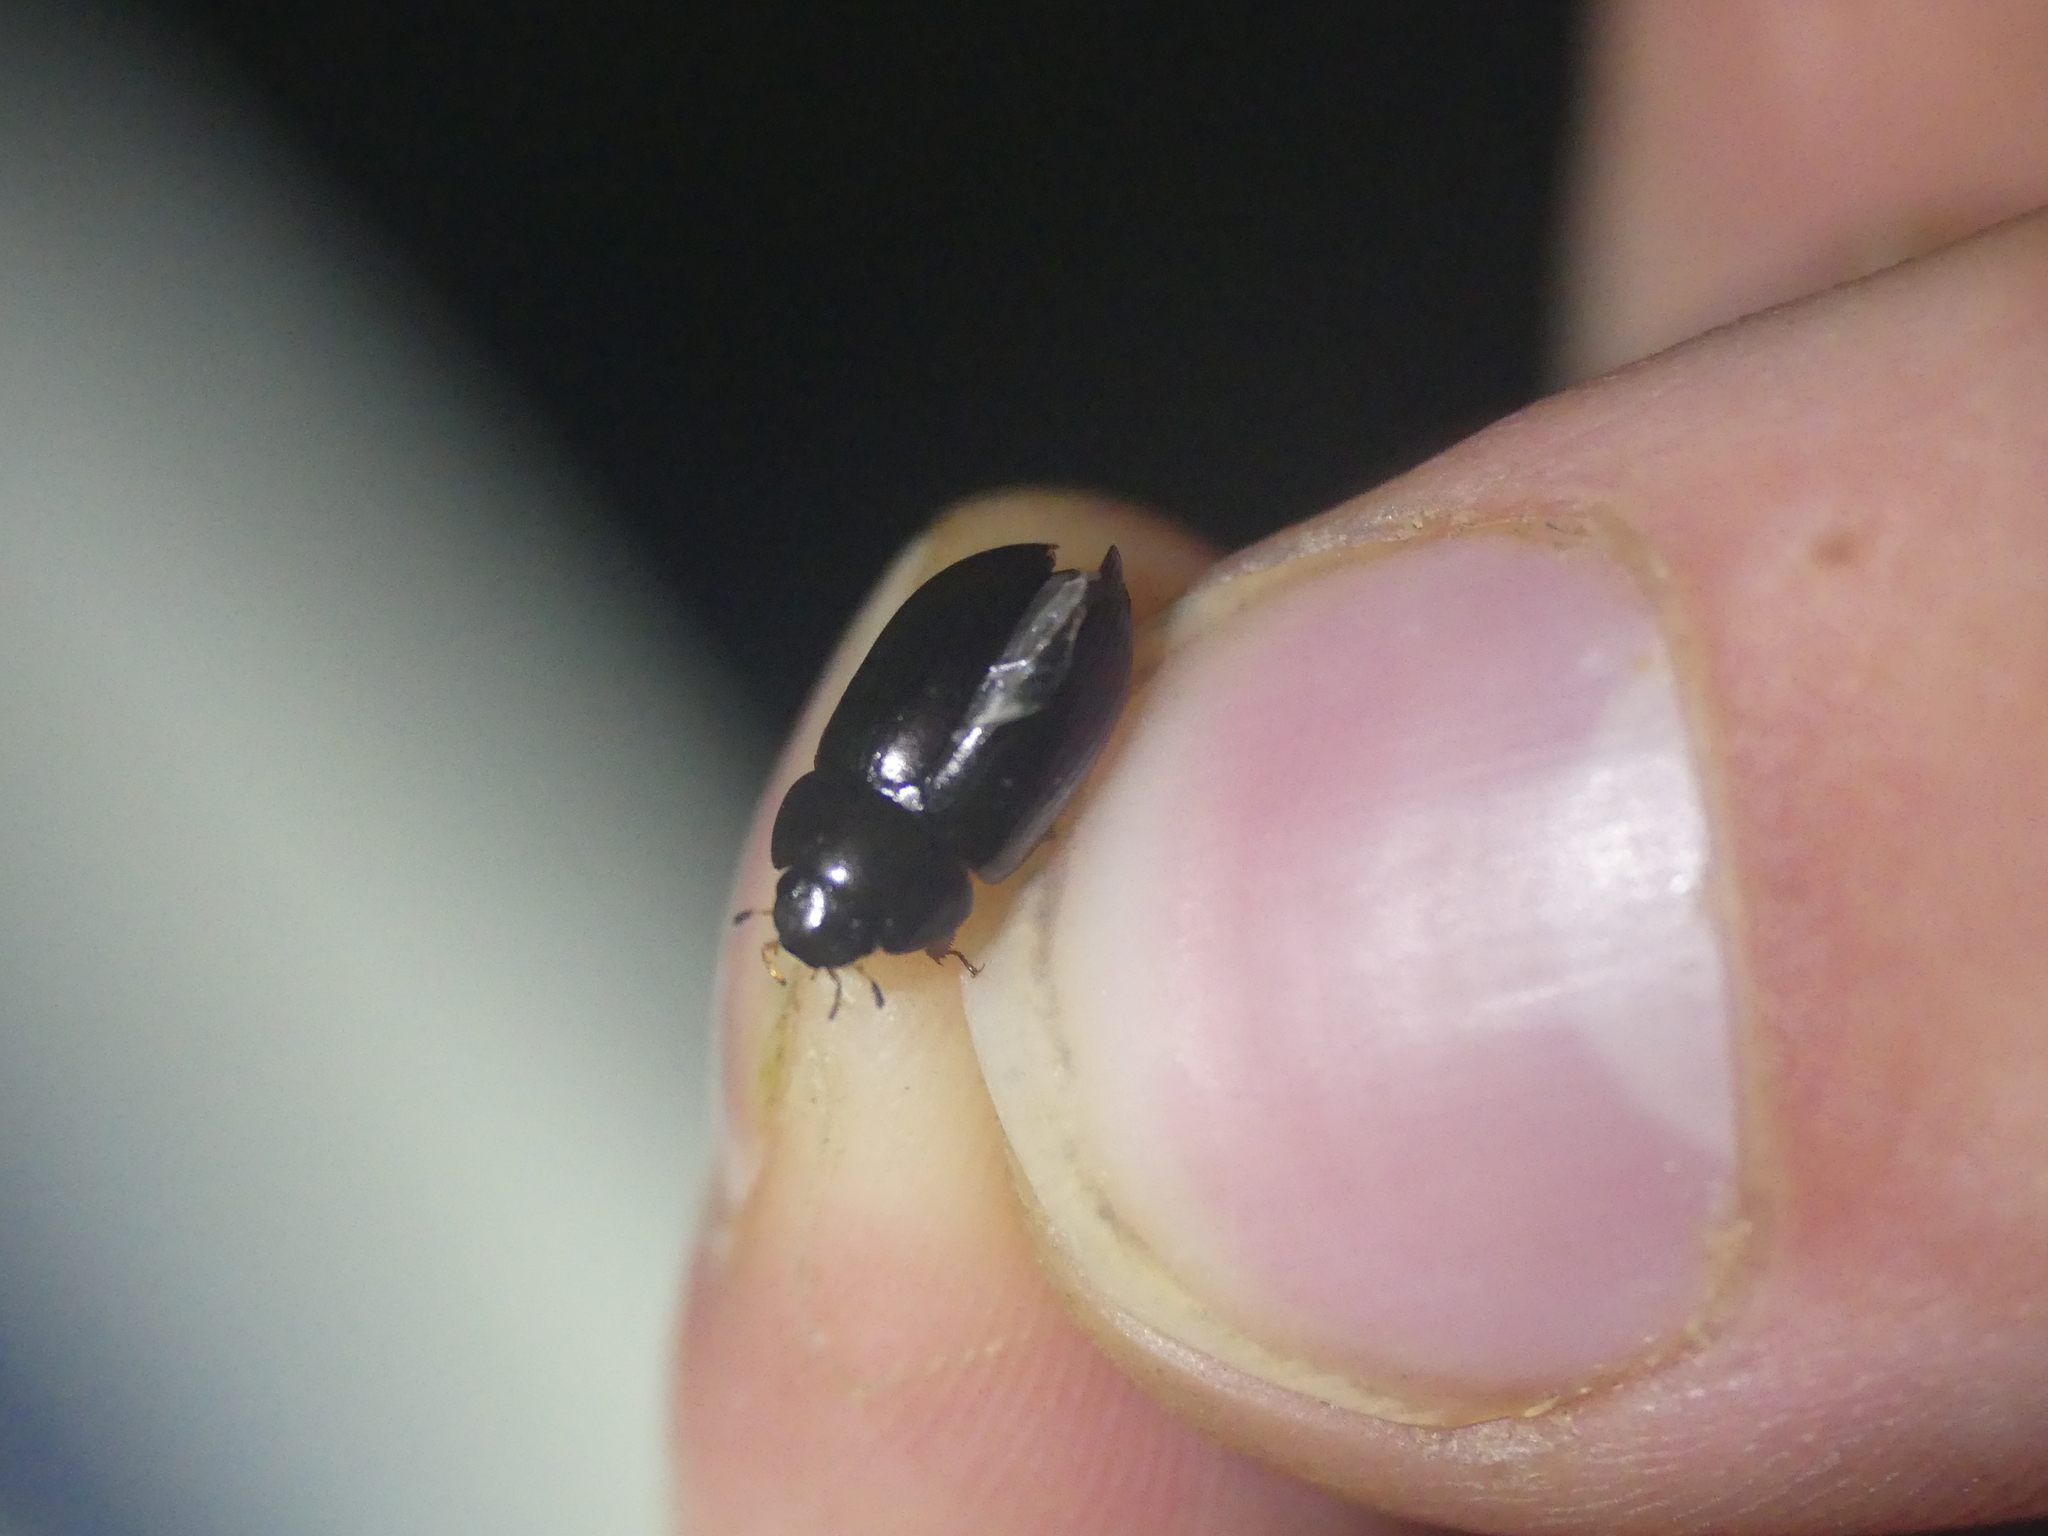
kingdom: Animalia
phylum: Arthropoda
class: Insecta
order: Coleoptera
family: Hydrophilidae
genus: Hydrobius
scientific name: Hydrobius
